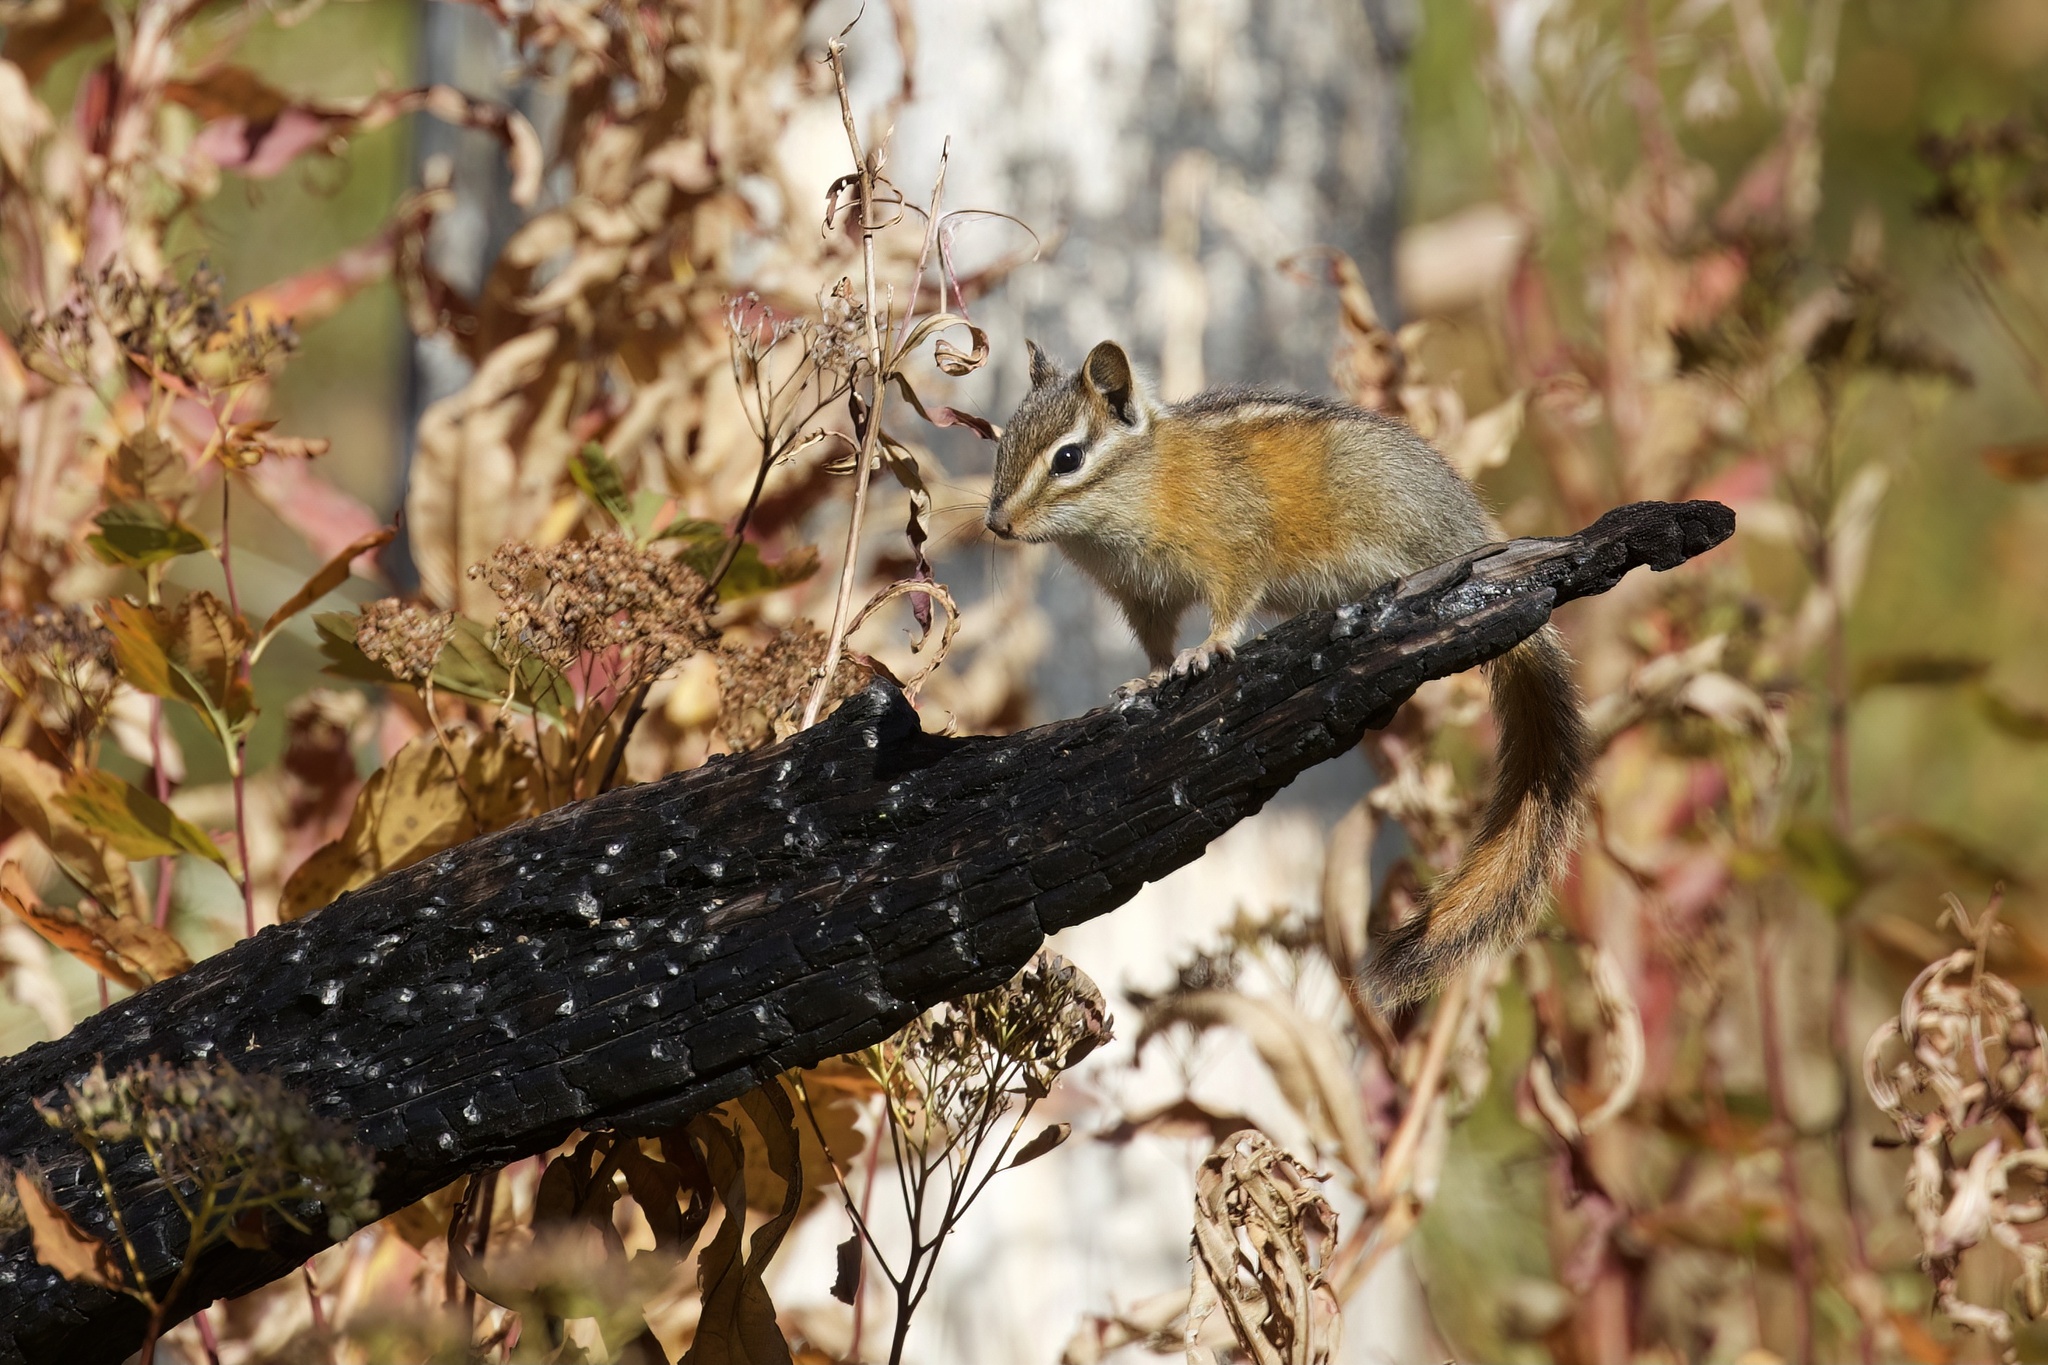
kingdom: Animalia
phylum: Chordata
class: Mammalia
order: Rodentia
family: Sciuridae
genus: Neotamias
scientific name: Neotamias ruficaudus
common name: Red-tailed chipmunk
